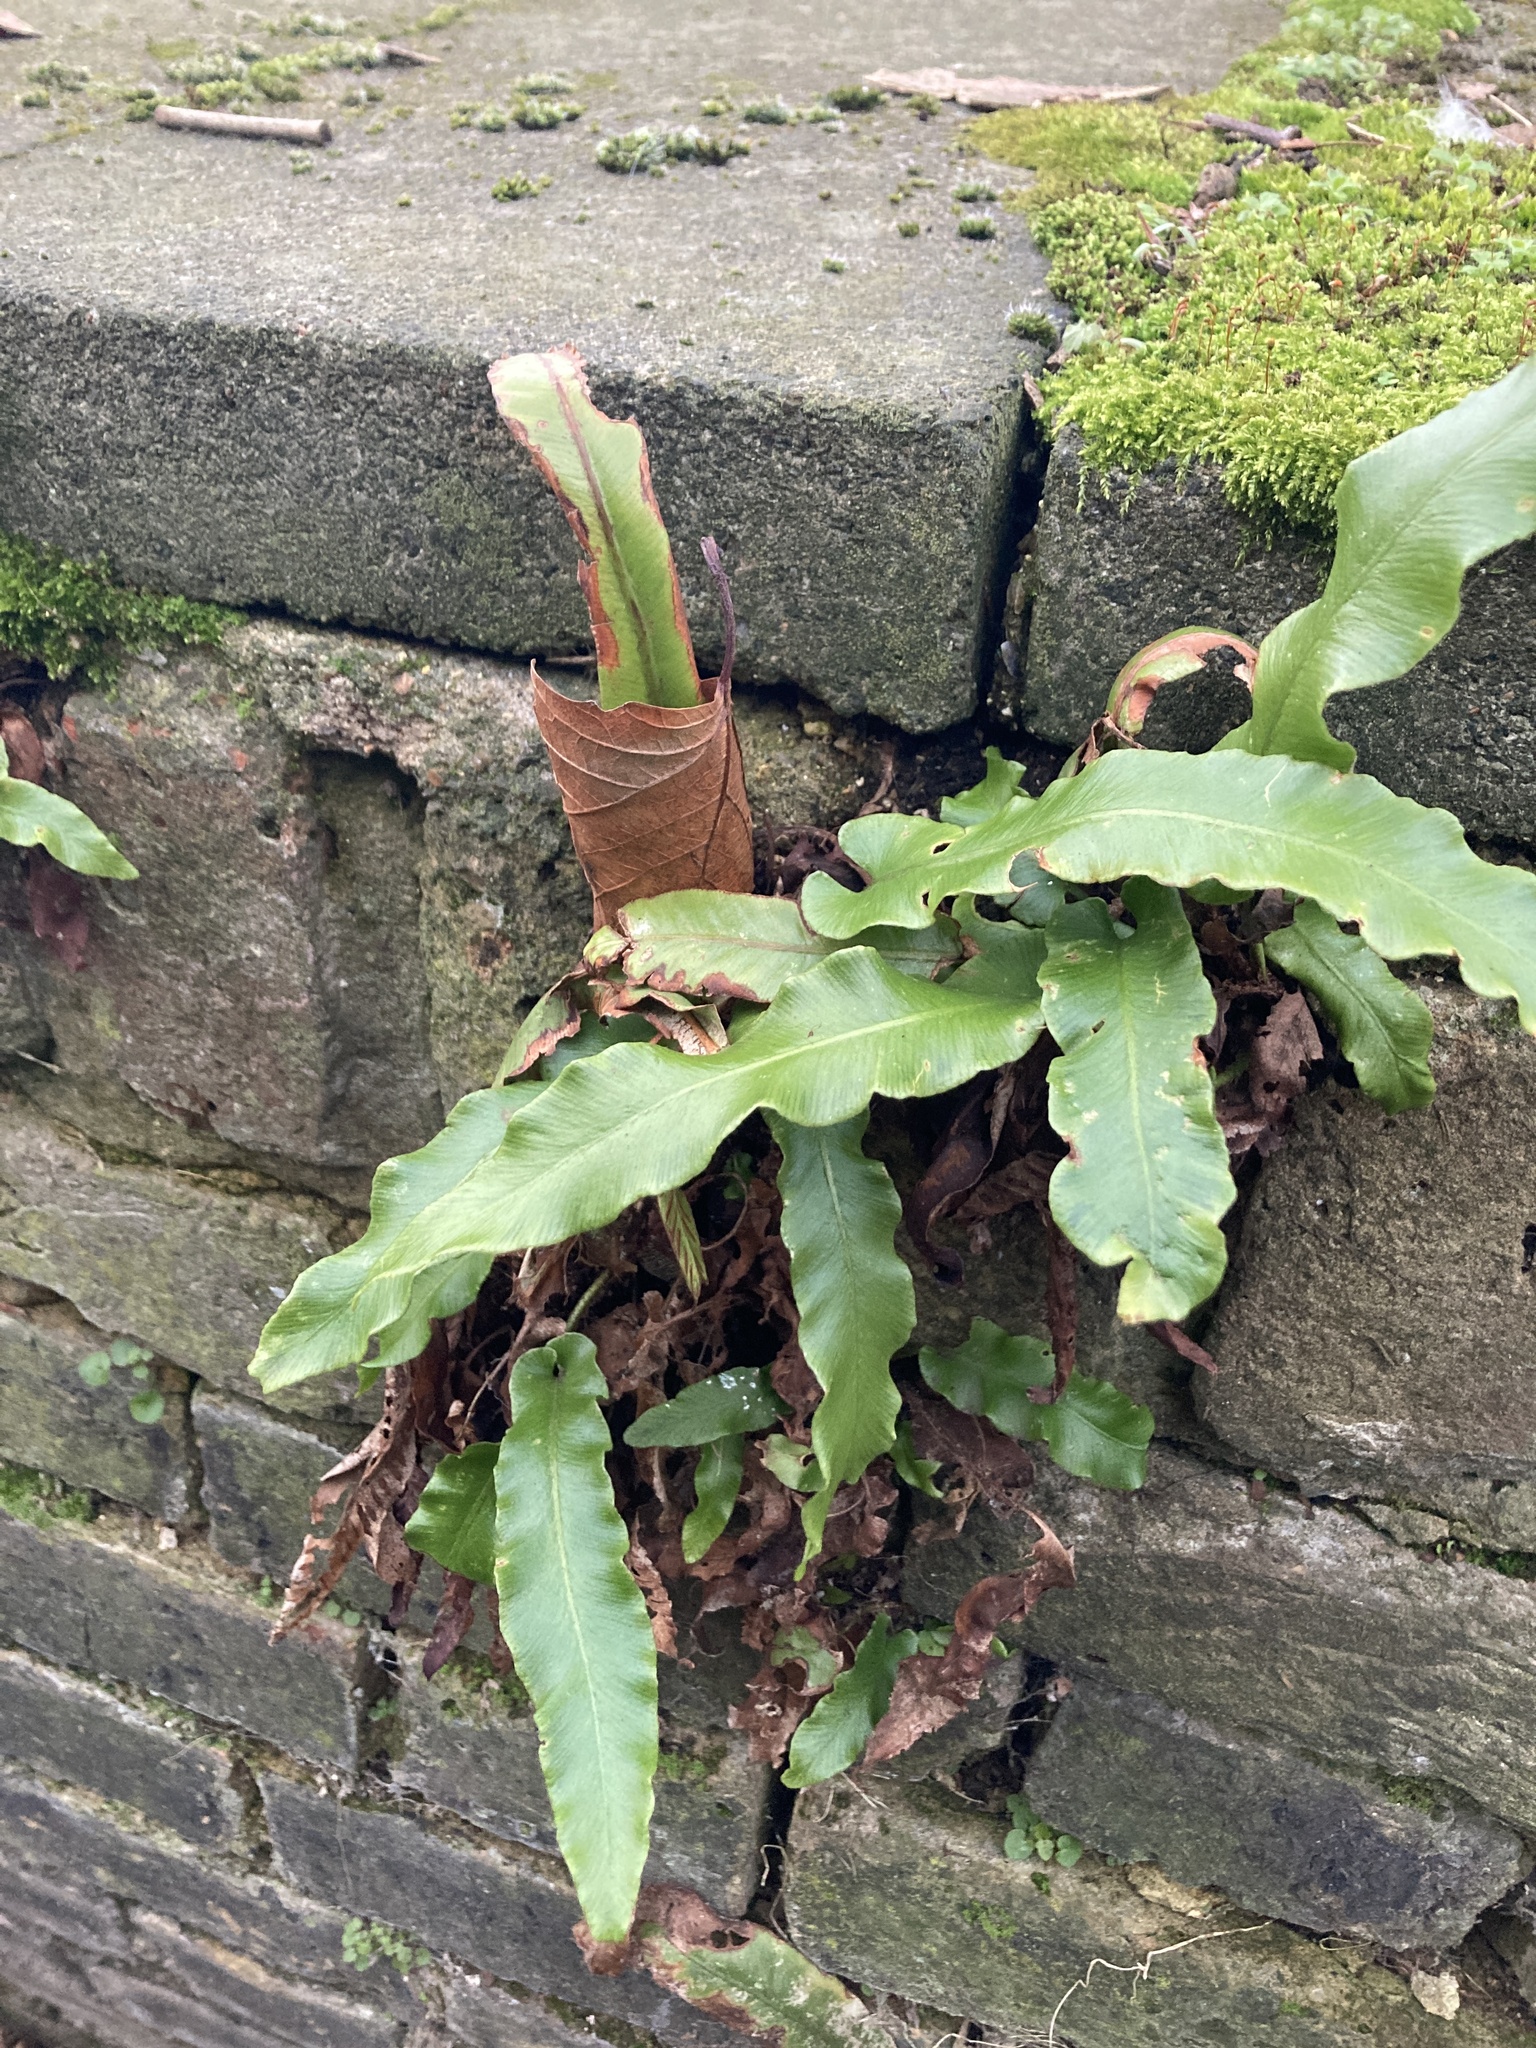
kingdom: Plantae
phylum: Tracheophyta
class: Polypodiopsida
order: Polypodiales
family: Aspleniaceae
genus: Asplenium
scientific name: Asplenium scolopendrium
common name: Hart's-tongue fern
